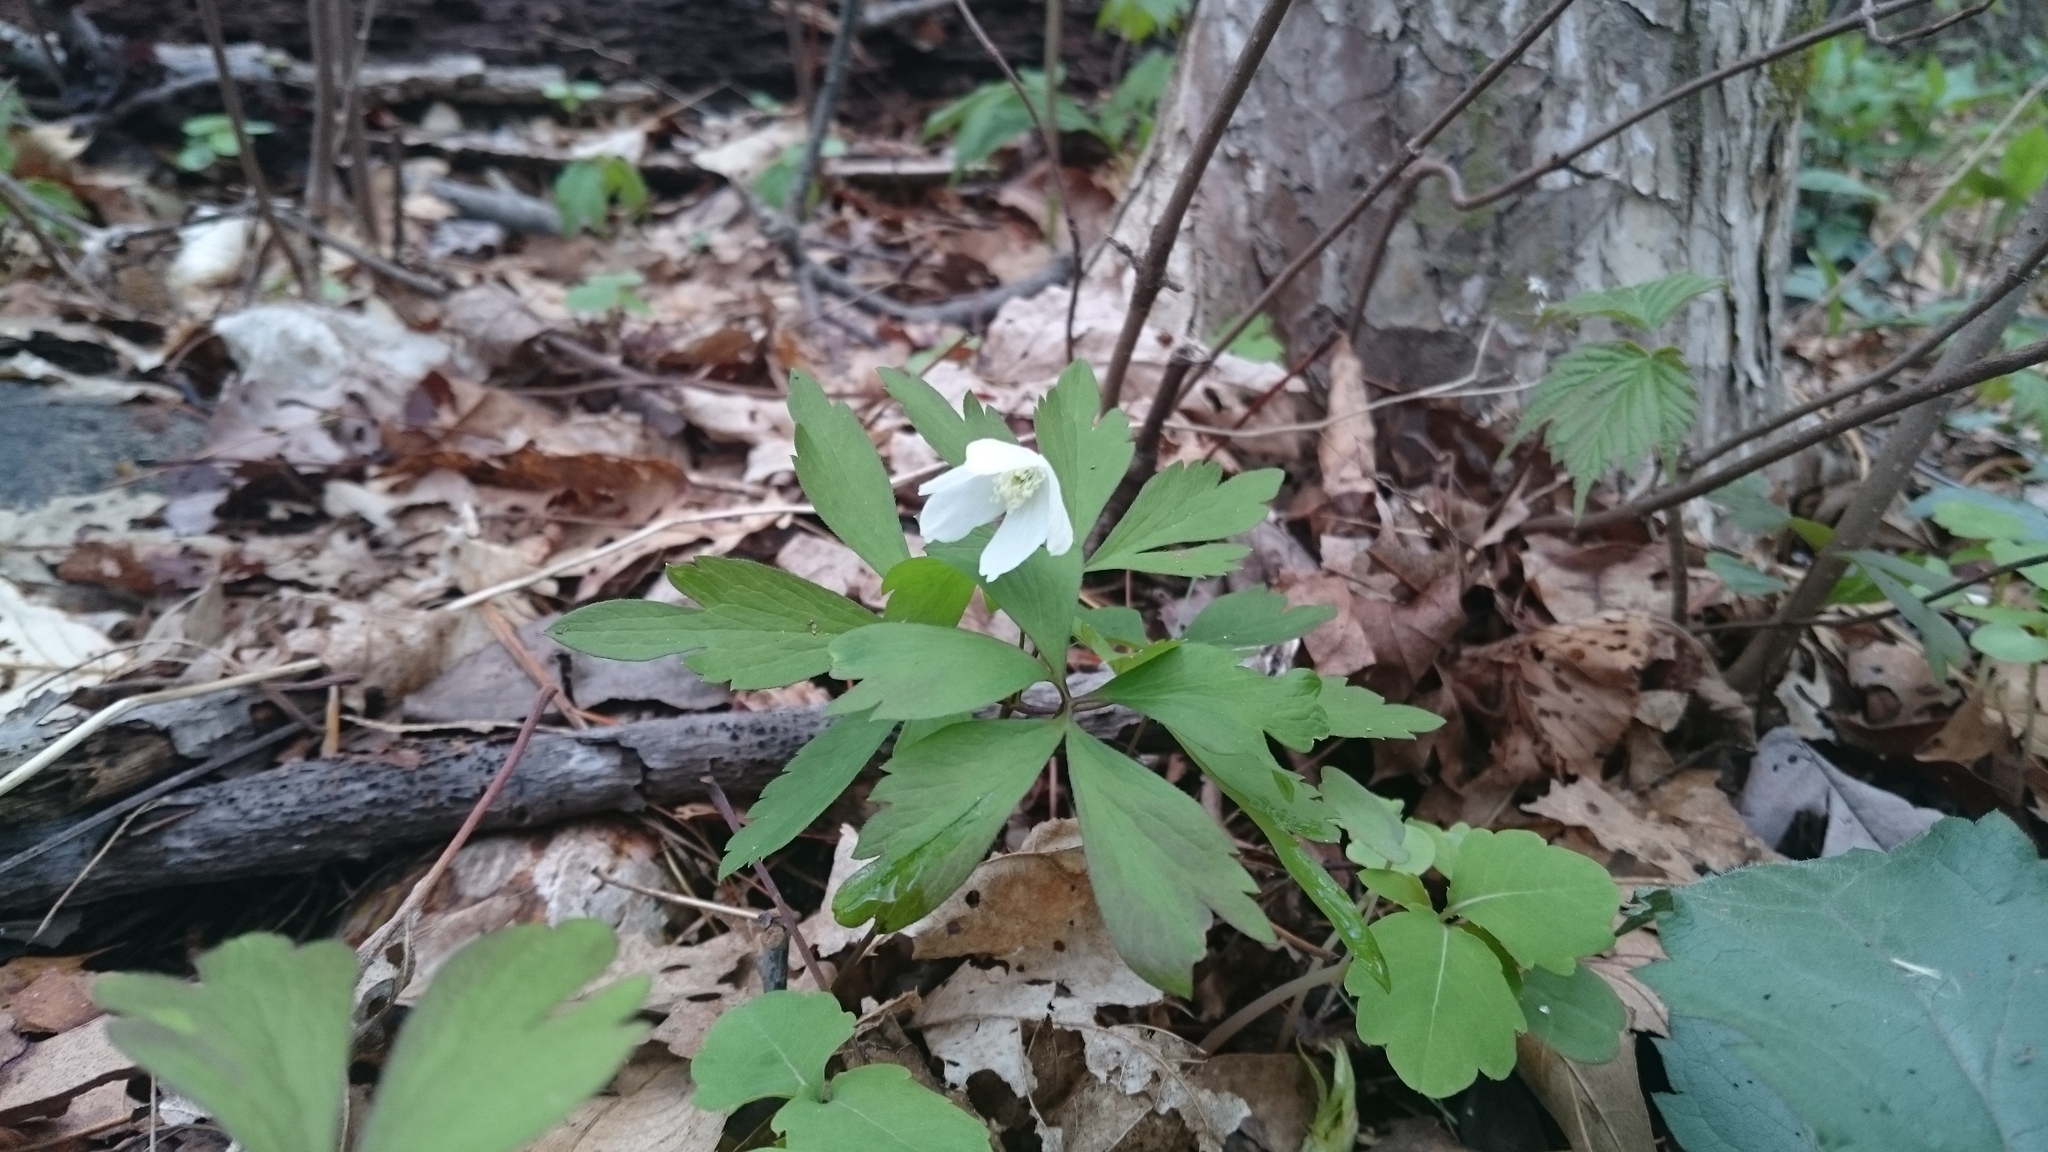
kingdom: Plantae
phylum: Tracheophyta
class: Magnoliopsida
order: Ranunculales
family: Ranunculaceae
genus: Anemone
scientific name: Anemone quinquefolia
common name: Wood anemone
